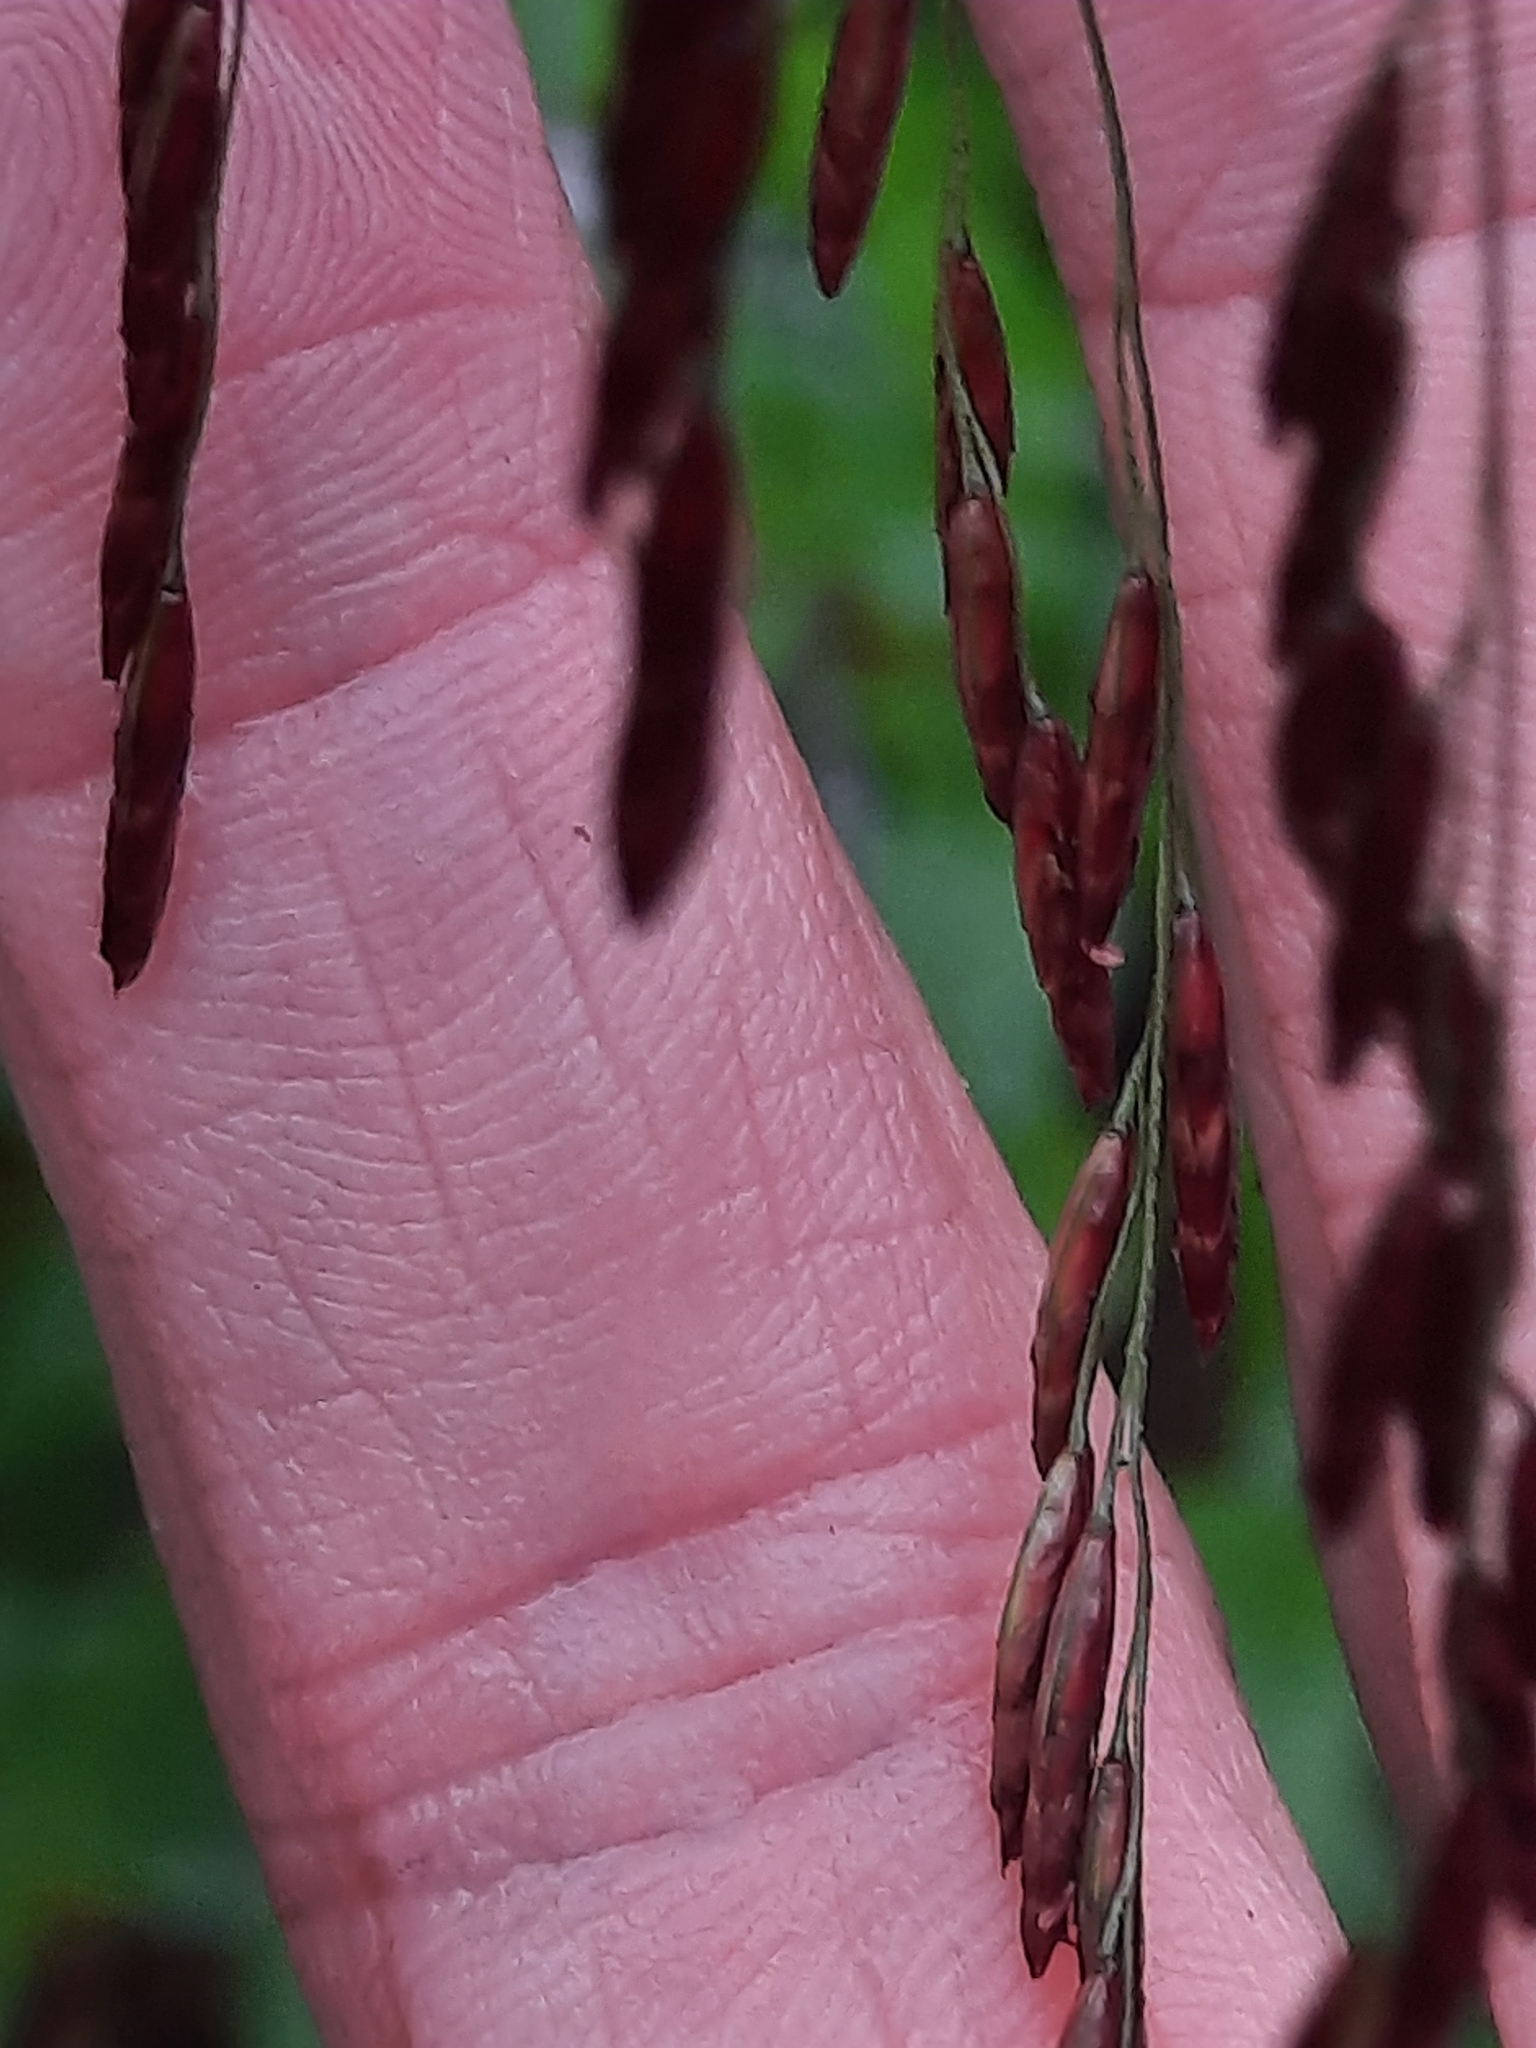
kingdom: Plantae
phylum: Tracheophyta
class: Liliopsida
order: Poales
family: Poaceae
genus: Tridens
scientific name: Tridens flavus
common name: Purpletop
